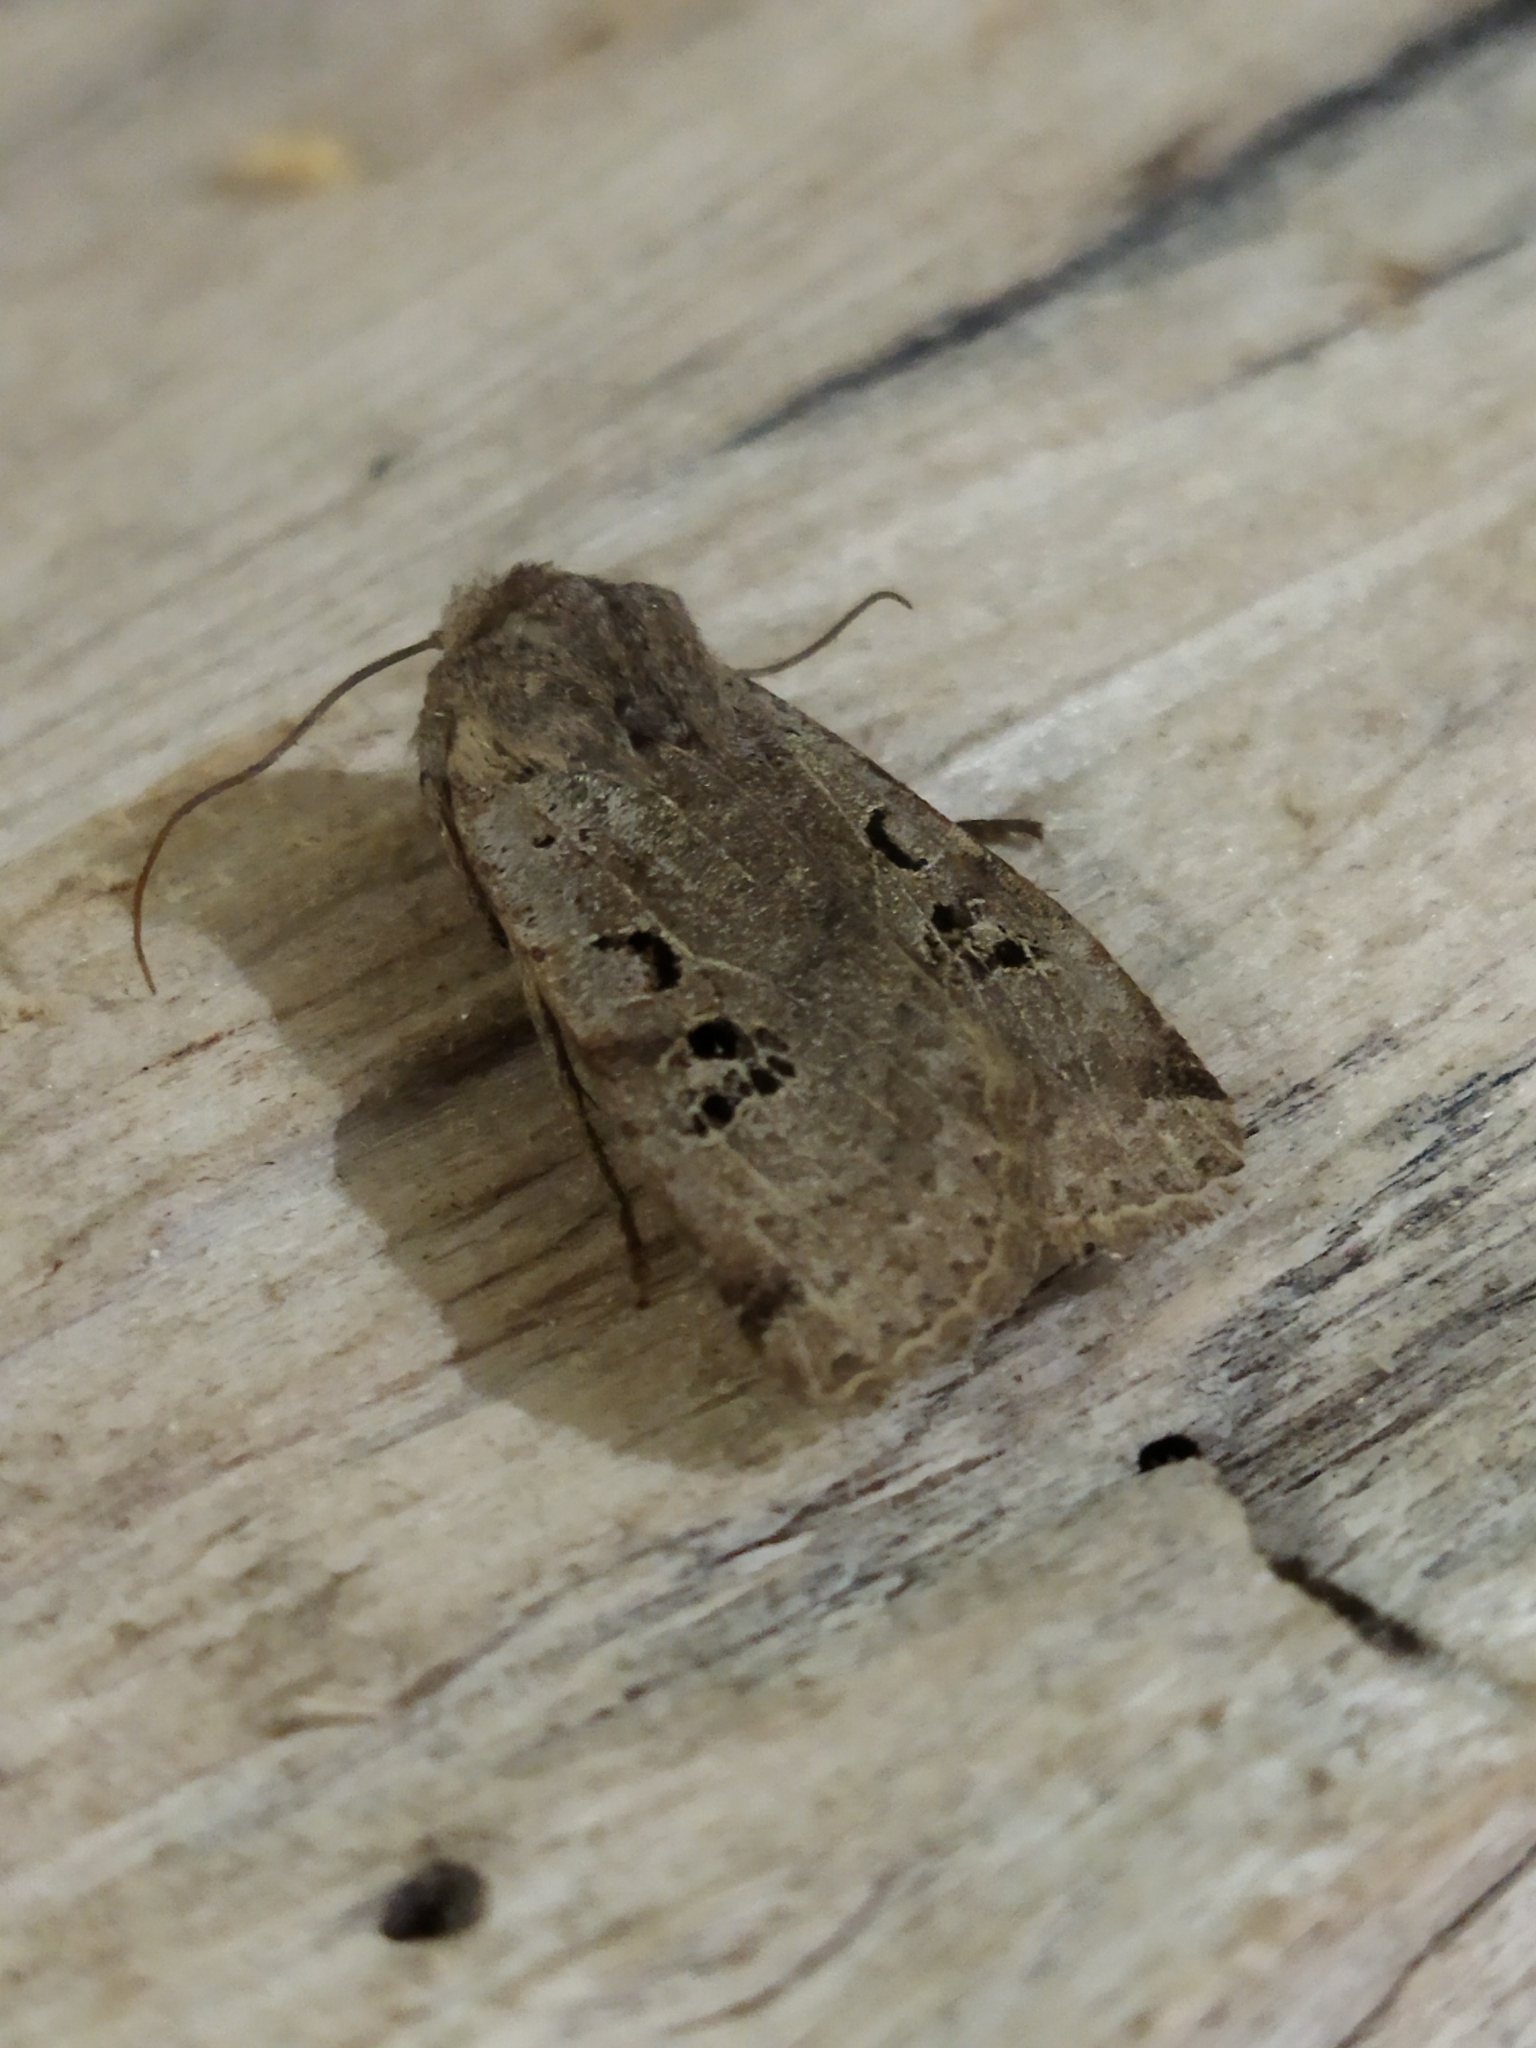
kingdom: Animalia
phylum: Arthropoda
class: Insecta
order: Lepidoptera
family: Noctuidae
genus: Conistra
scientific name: Conistra rubiginosa
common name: Black-spotted chestnut
